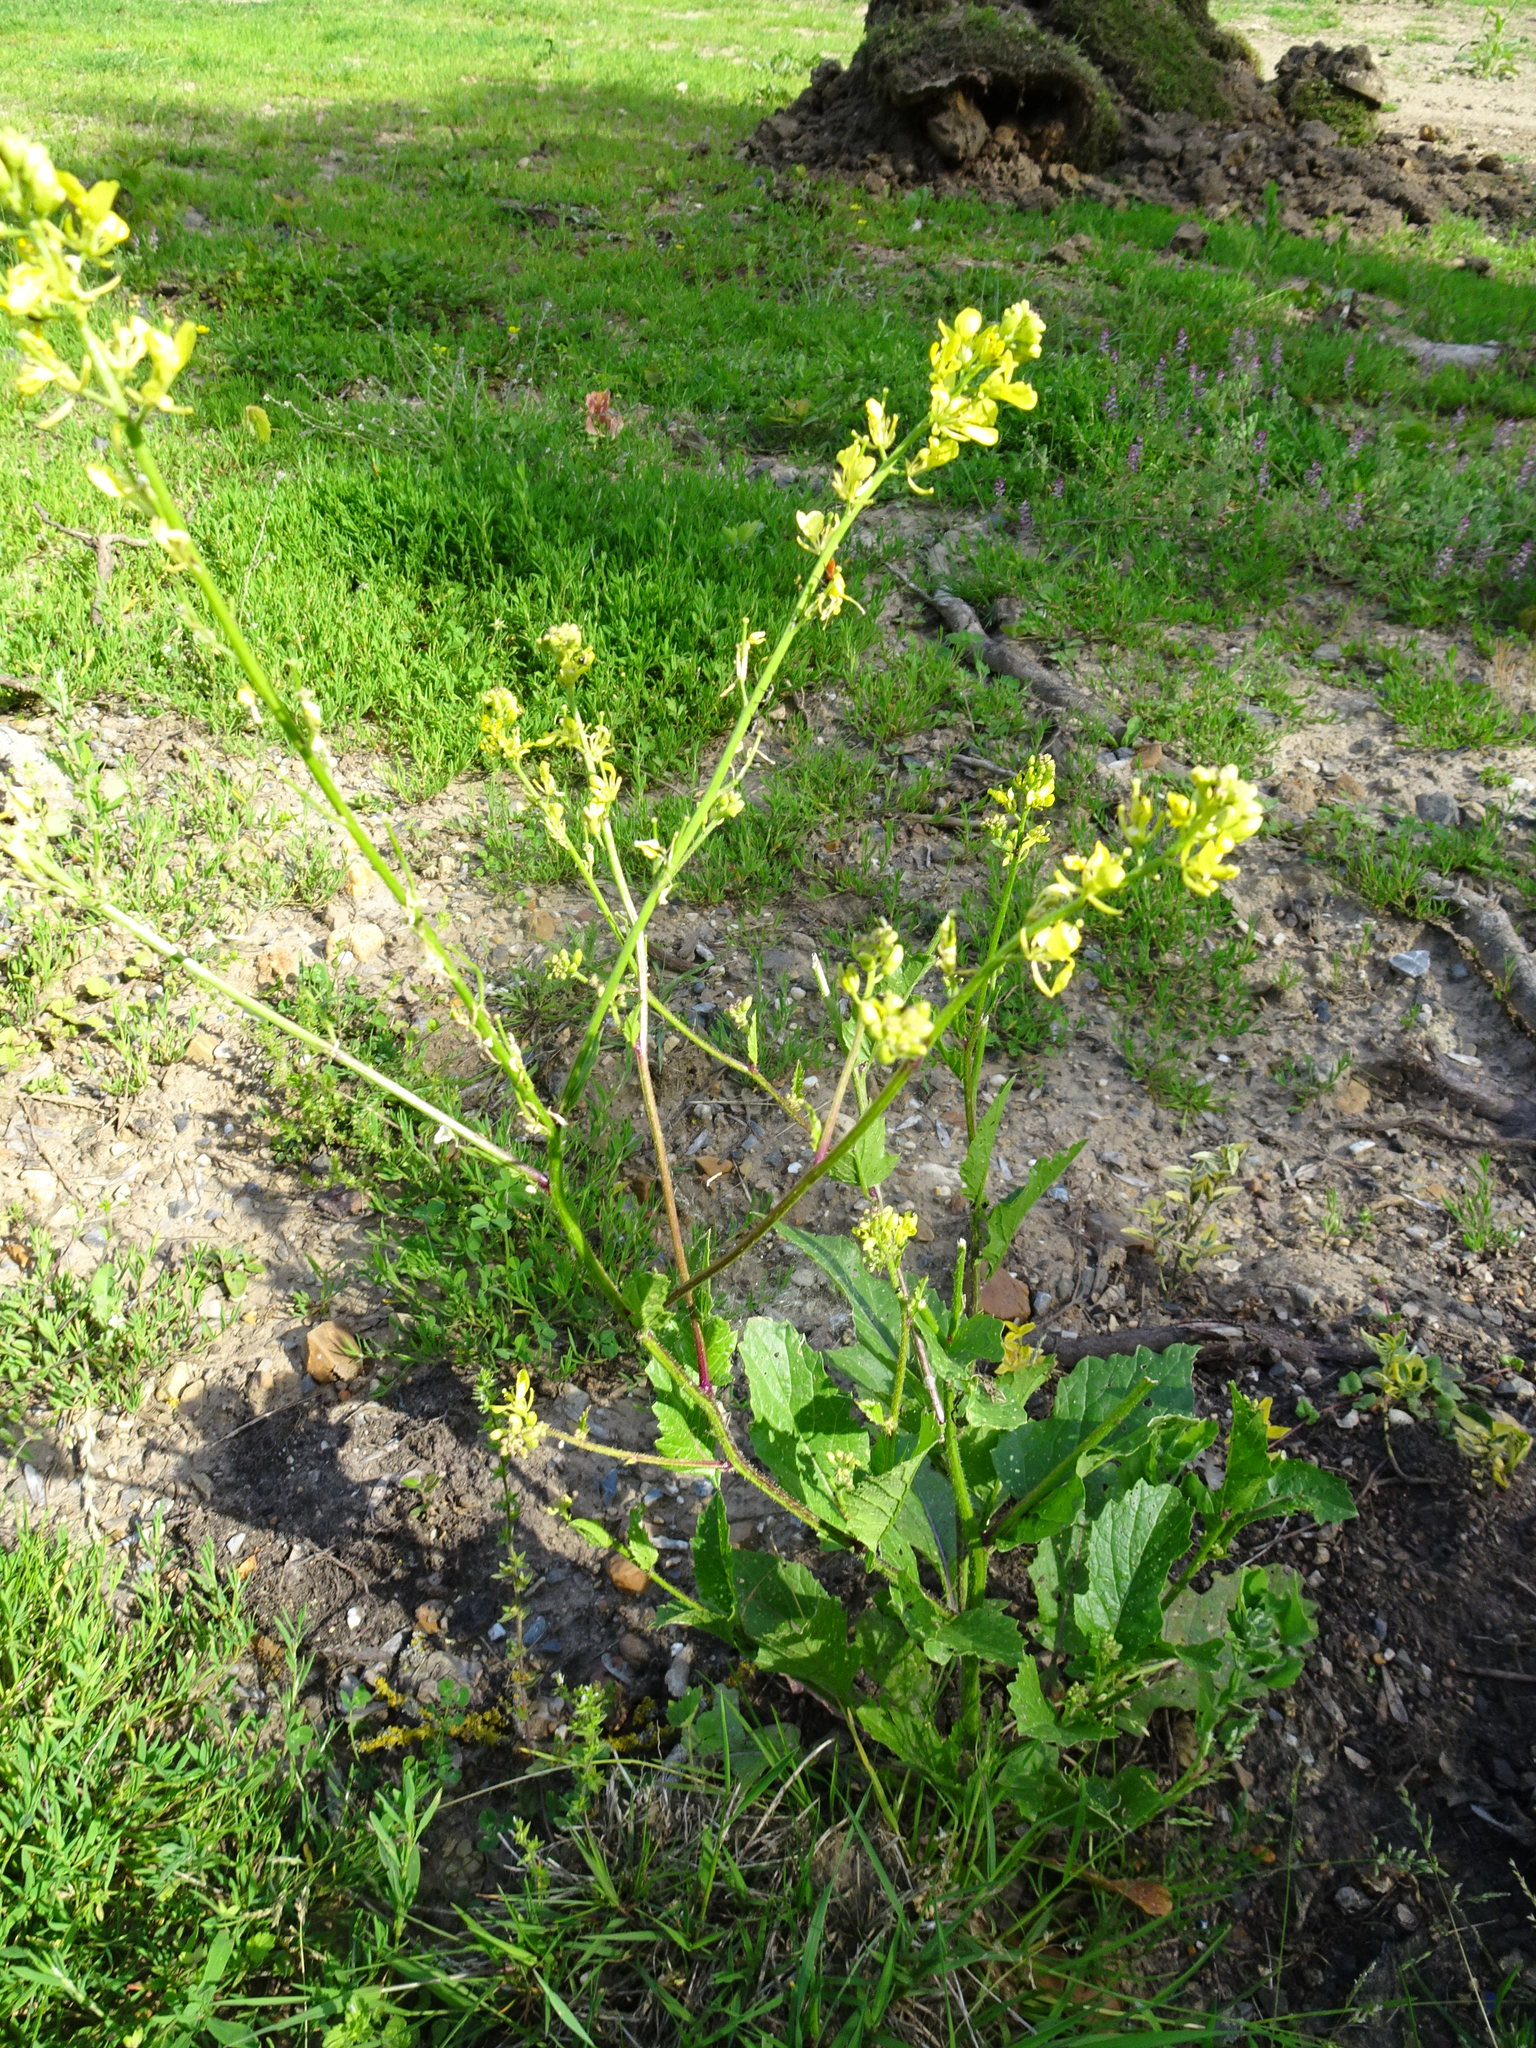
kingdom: Plantae
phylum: Tracheophyta
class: Magnoliopsida
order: Brassicales
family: Brassicaceae
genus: Sinapis
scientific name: Sinapis arvensis
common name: Charlock
